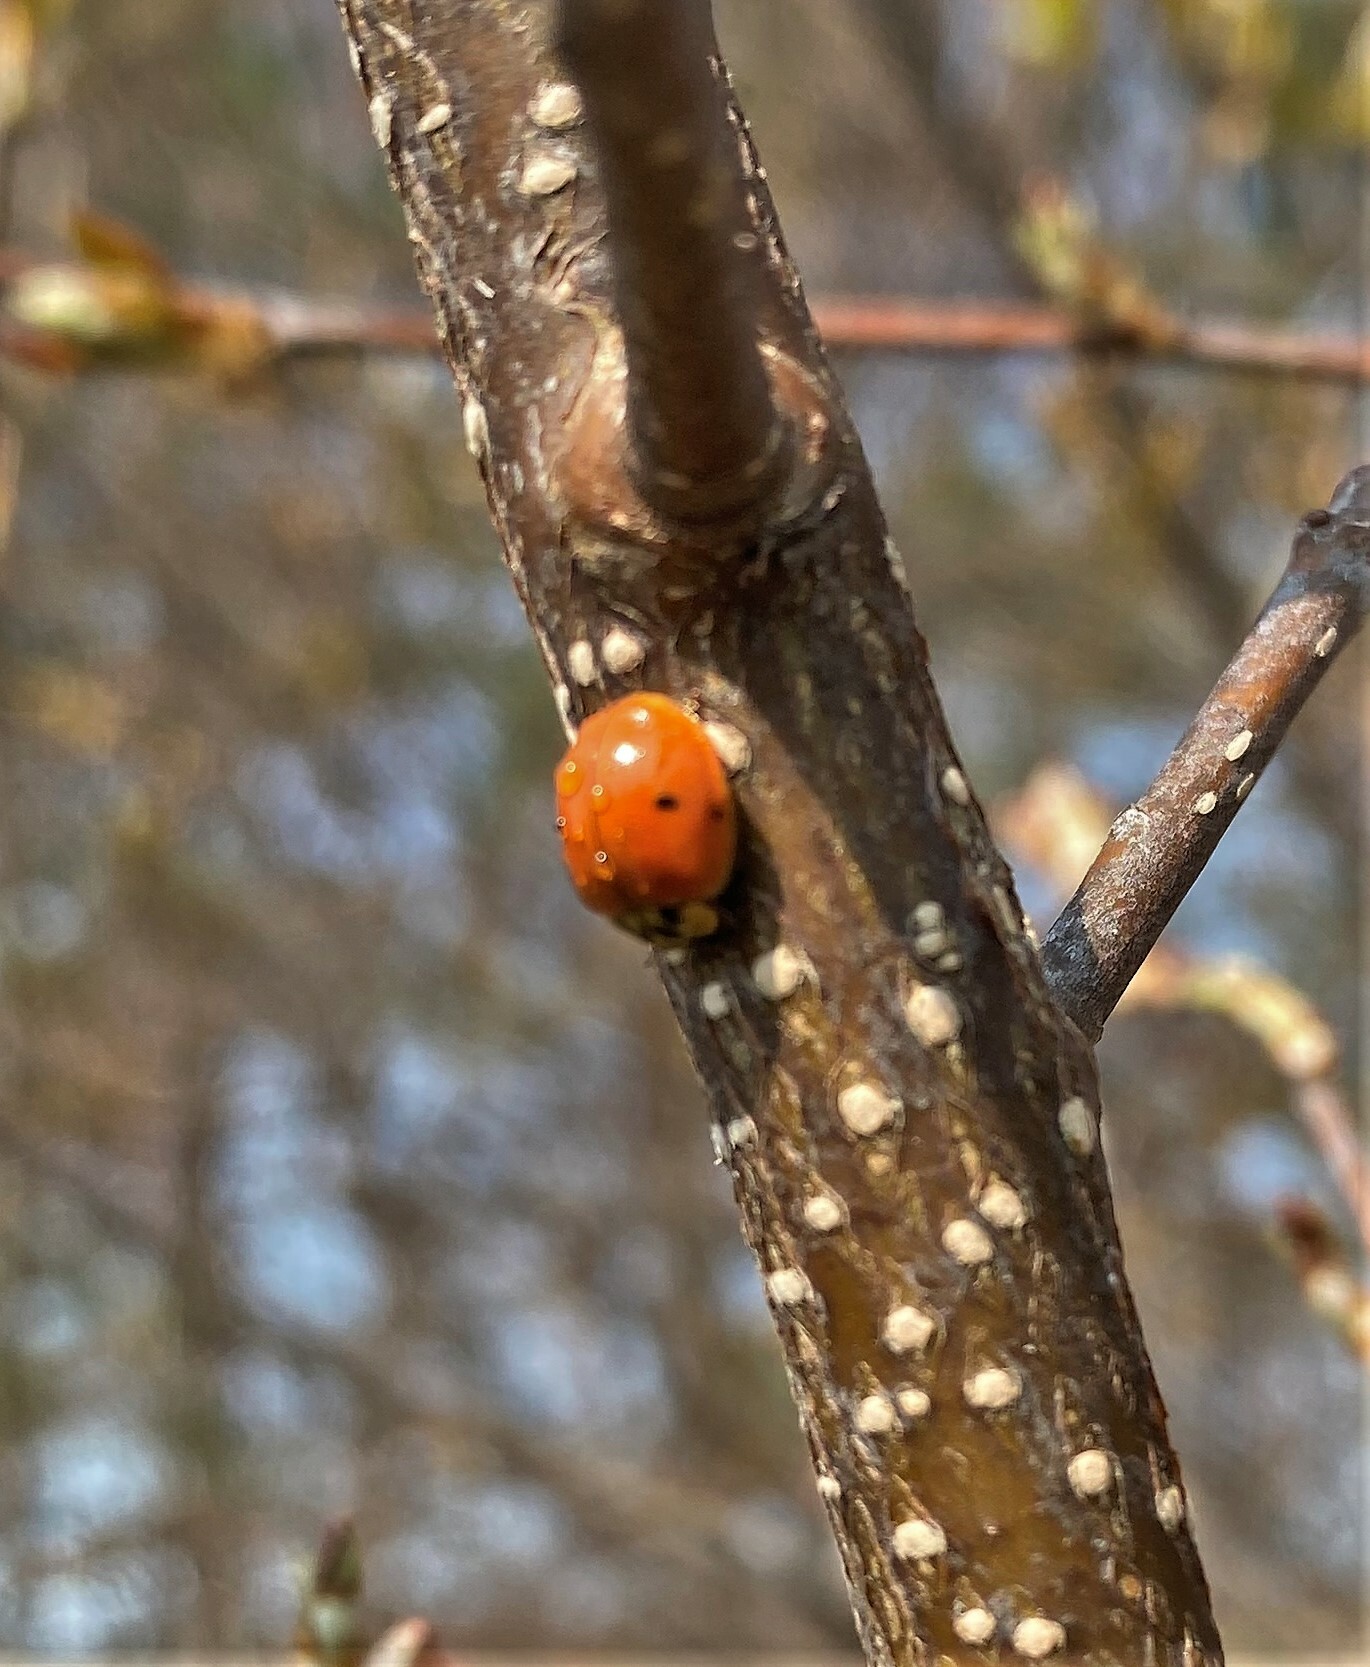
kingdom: Animalia
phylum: Arthropoda
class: Insecta
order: Coleoptera
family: Coccinellidae
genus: Adalia
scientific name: Adalia bipunctata
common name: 2-spot ladybird
